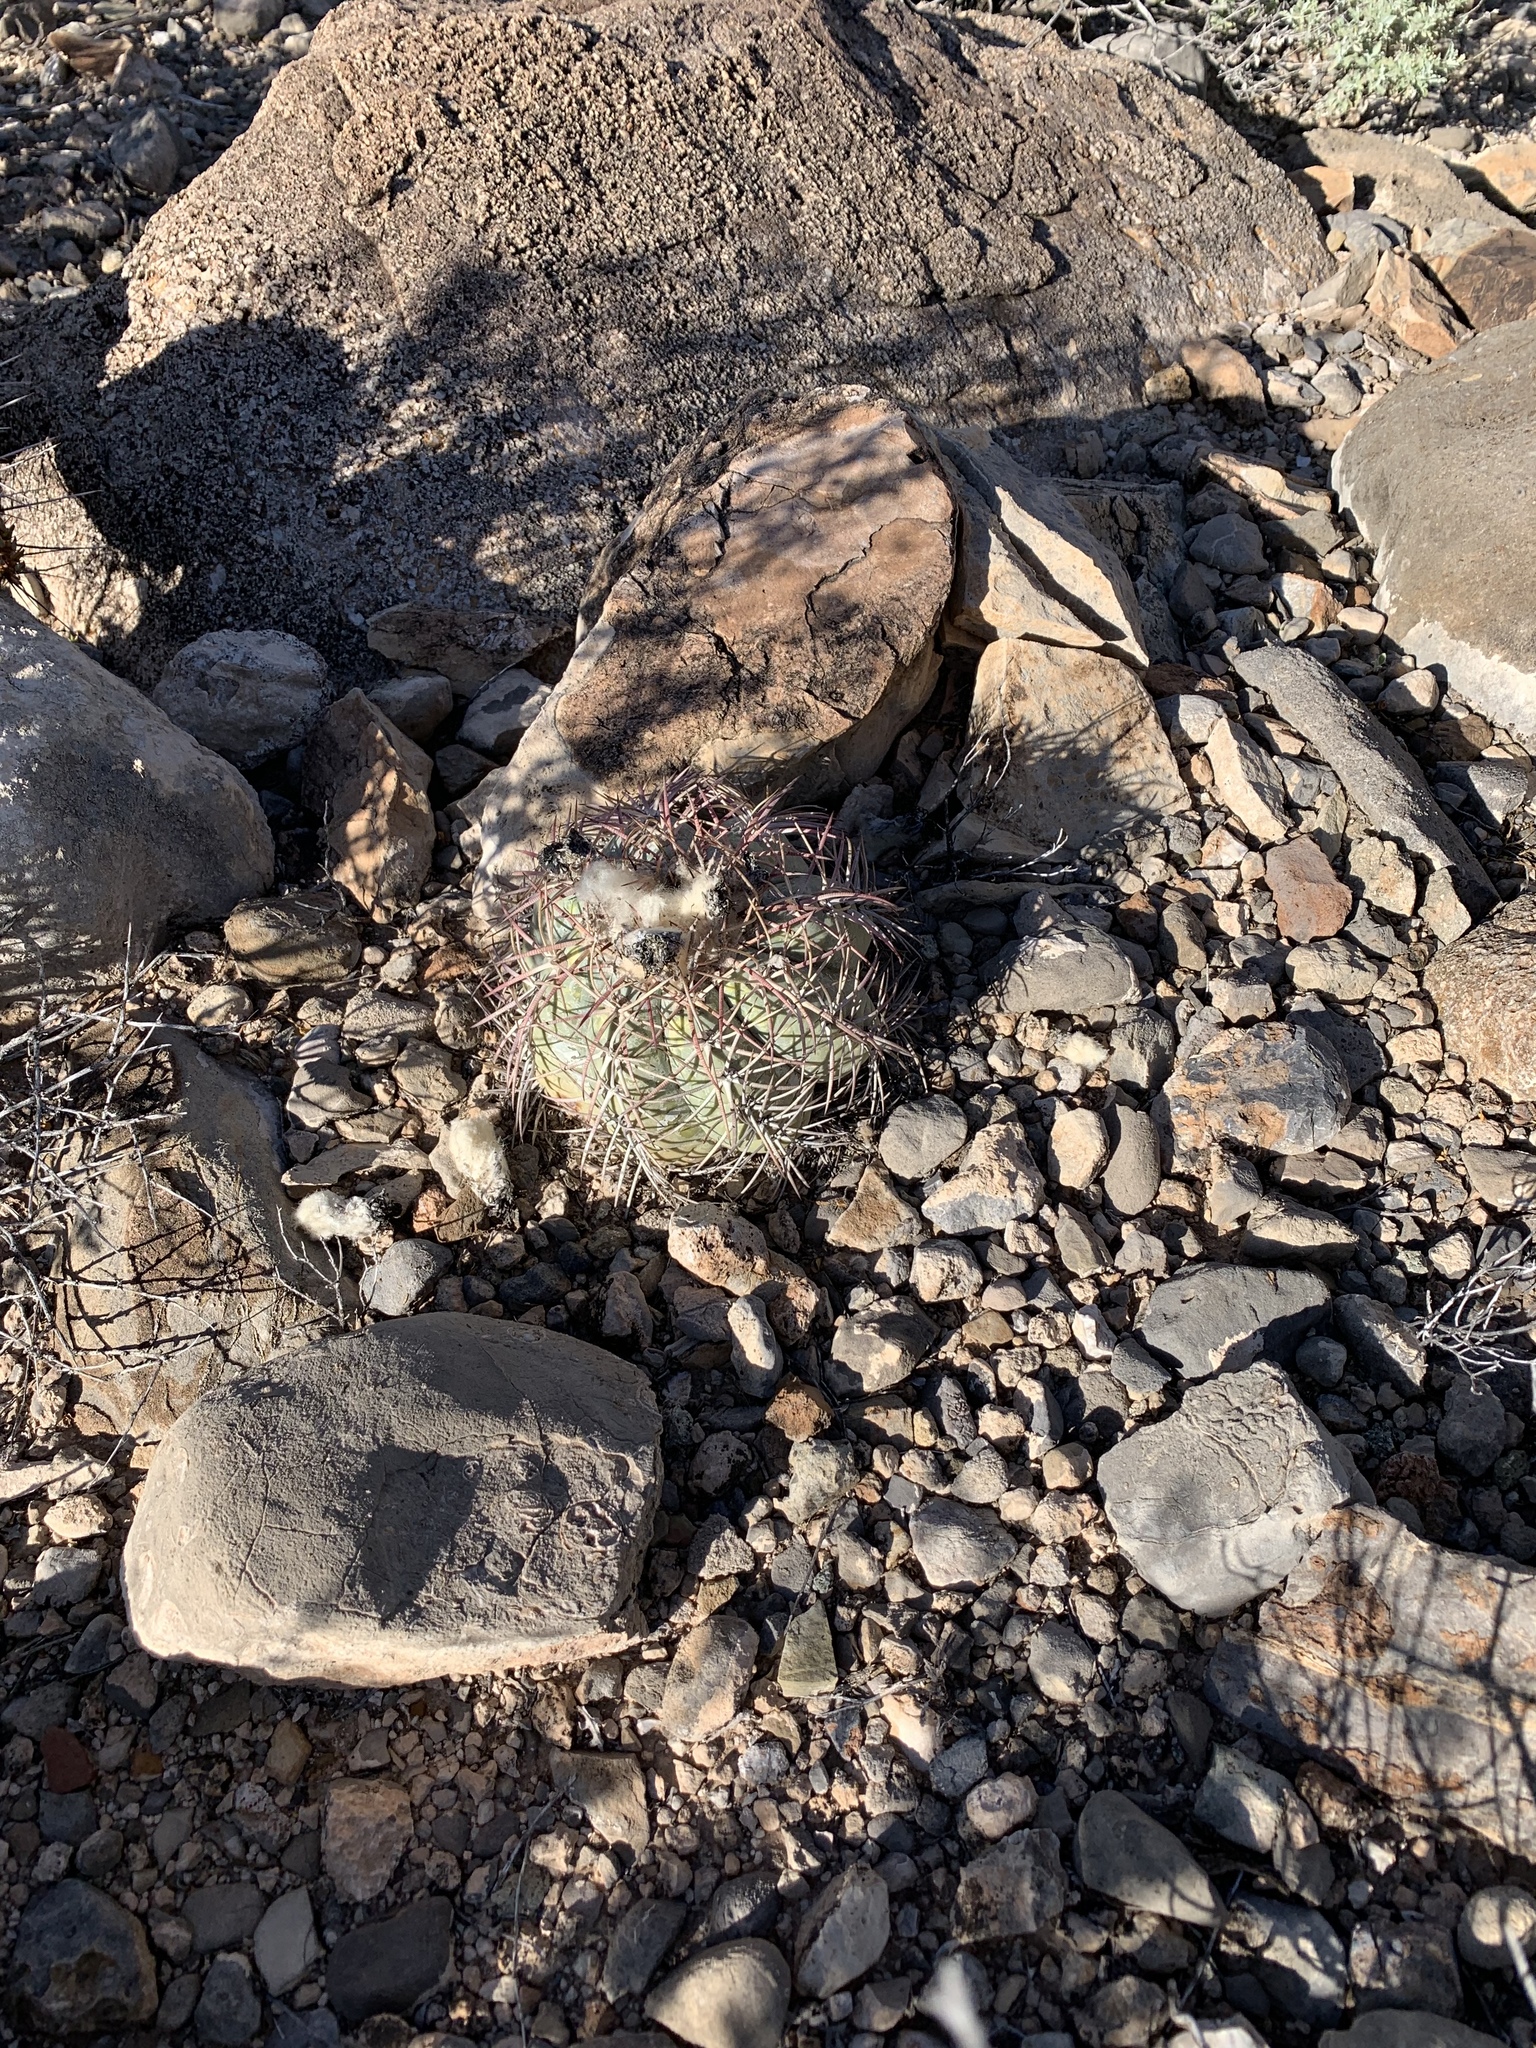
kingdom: Plantae
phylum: Tracheophyta
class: Magnoliopsida
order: Caryophyllales
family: Cactaceae
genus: Echinocactus
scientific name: Echinocactus horizonthalonius
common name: Devilshead
